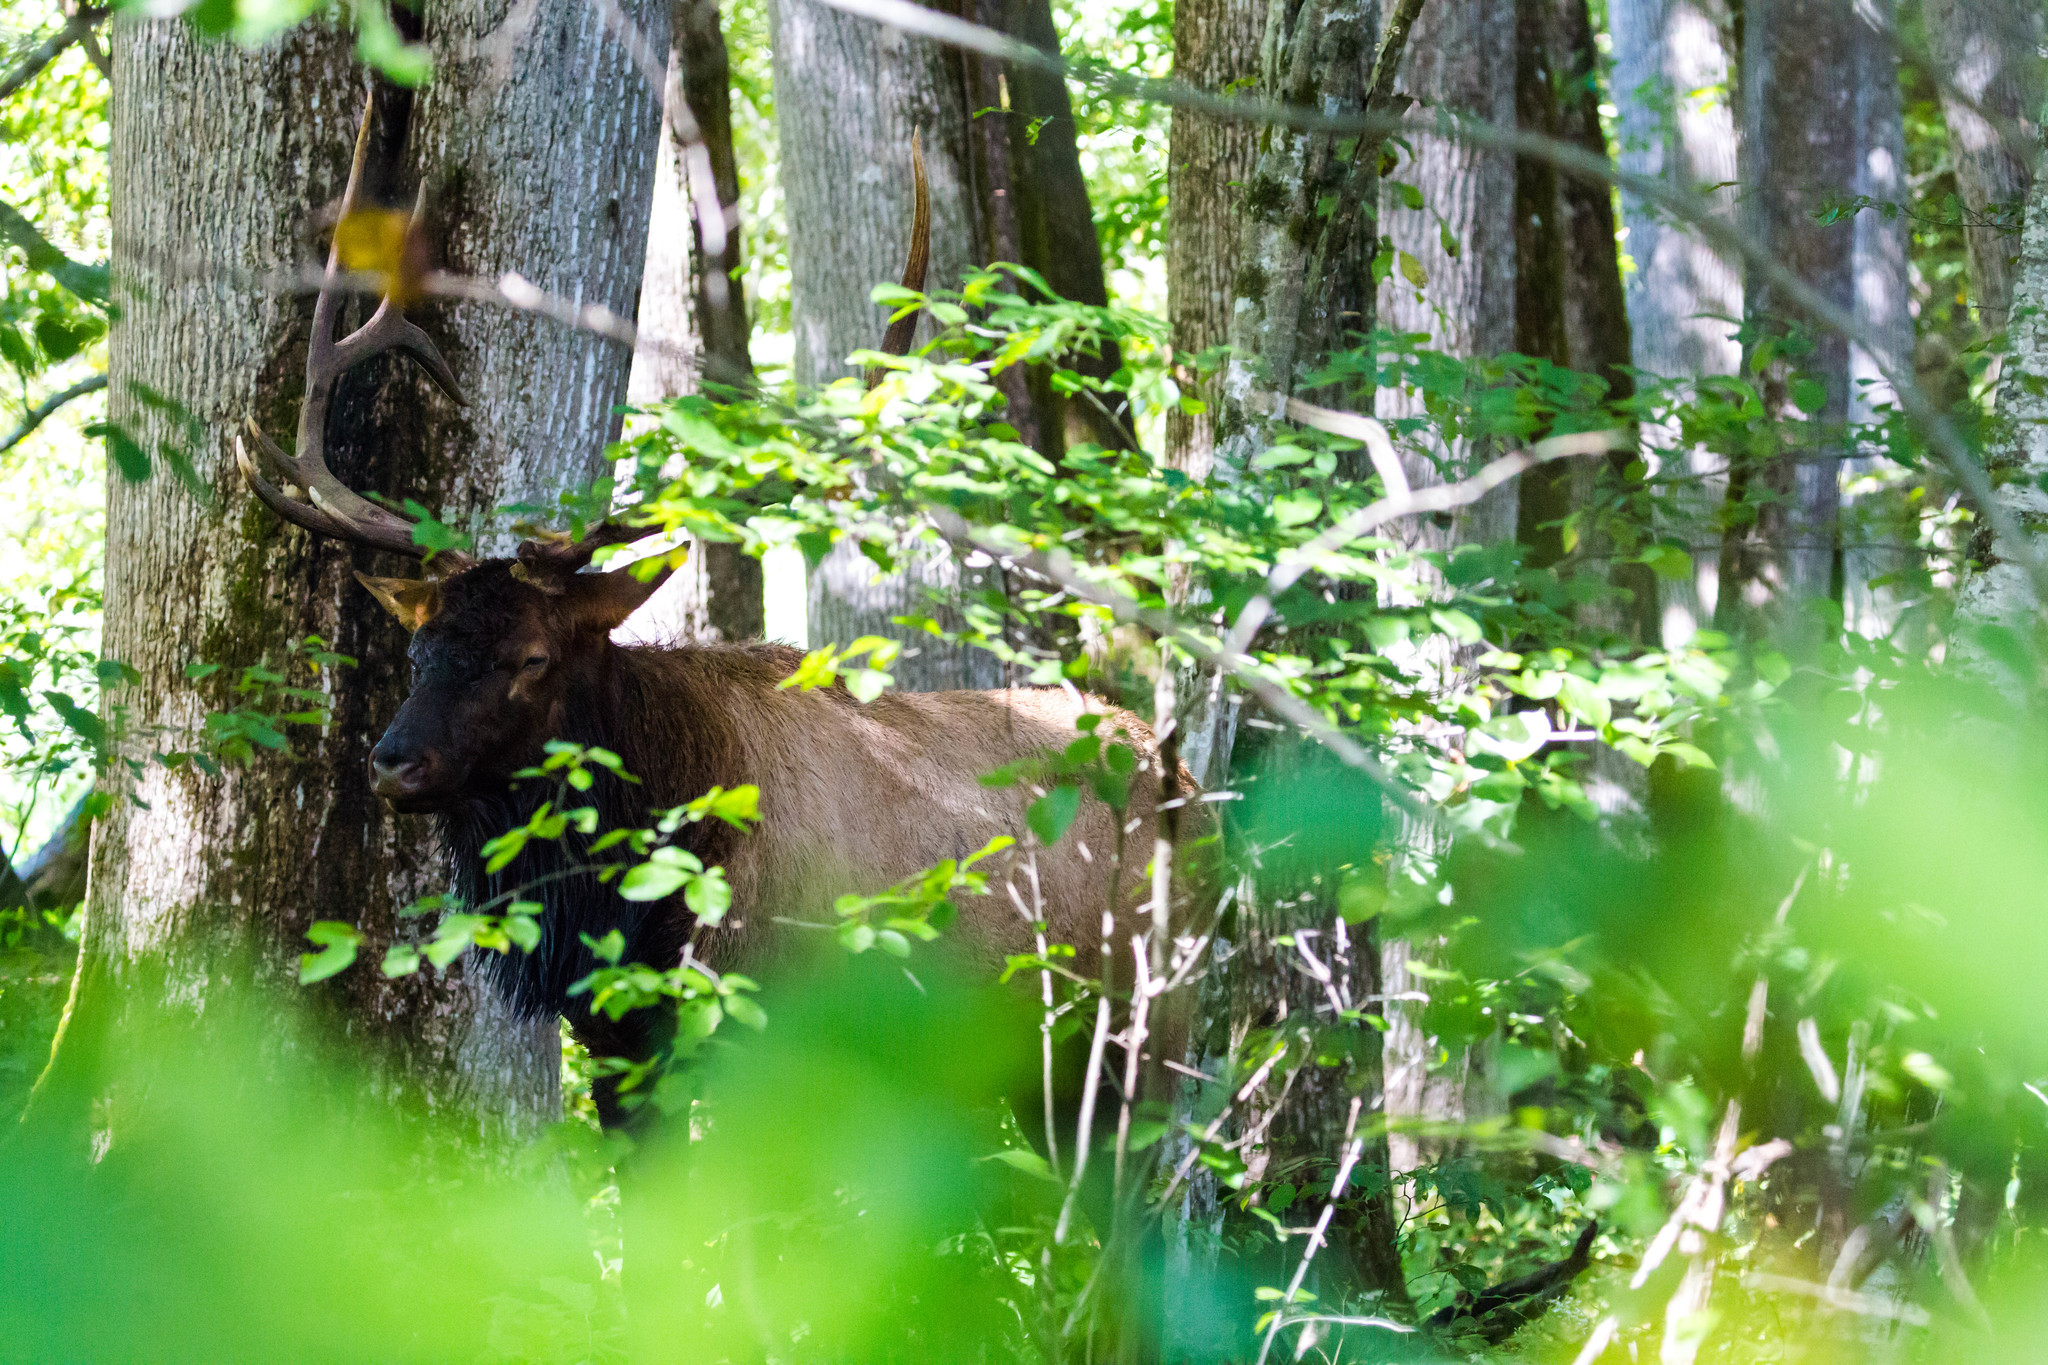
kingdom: Animalia
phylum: Chordata
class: Mammalia
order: Artiodactyla
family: Cervidae
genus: Cervus
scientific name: Cervus elaphus
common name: Red deer
